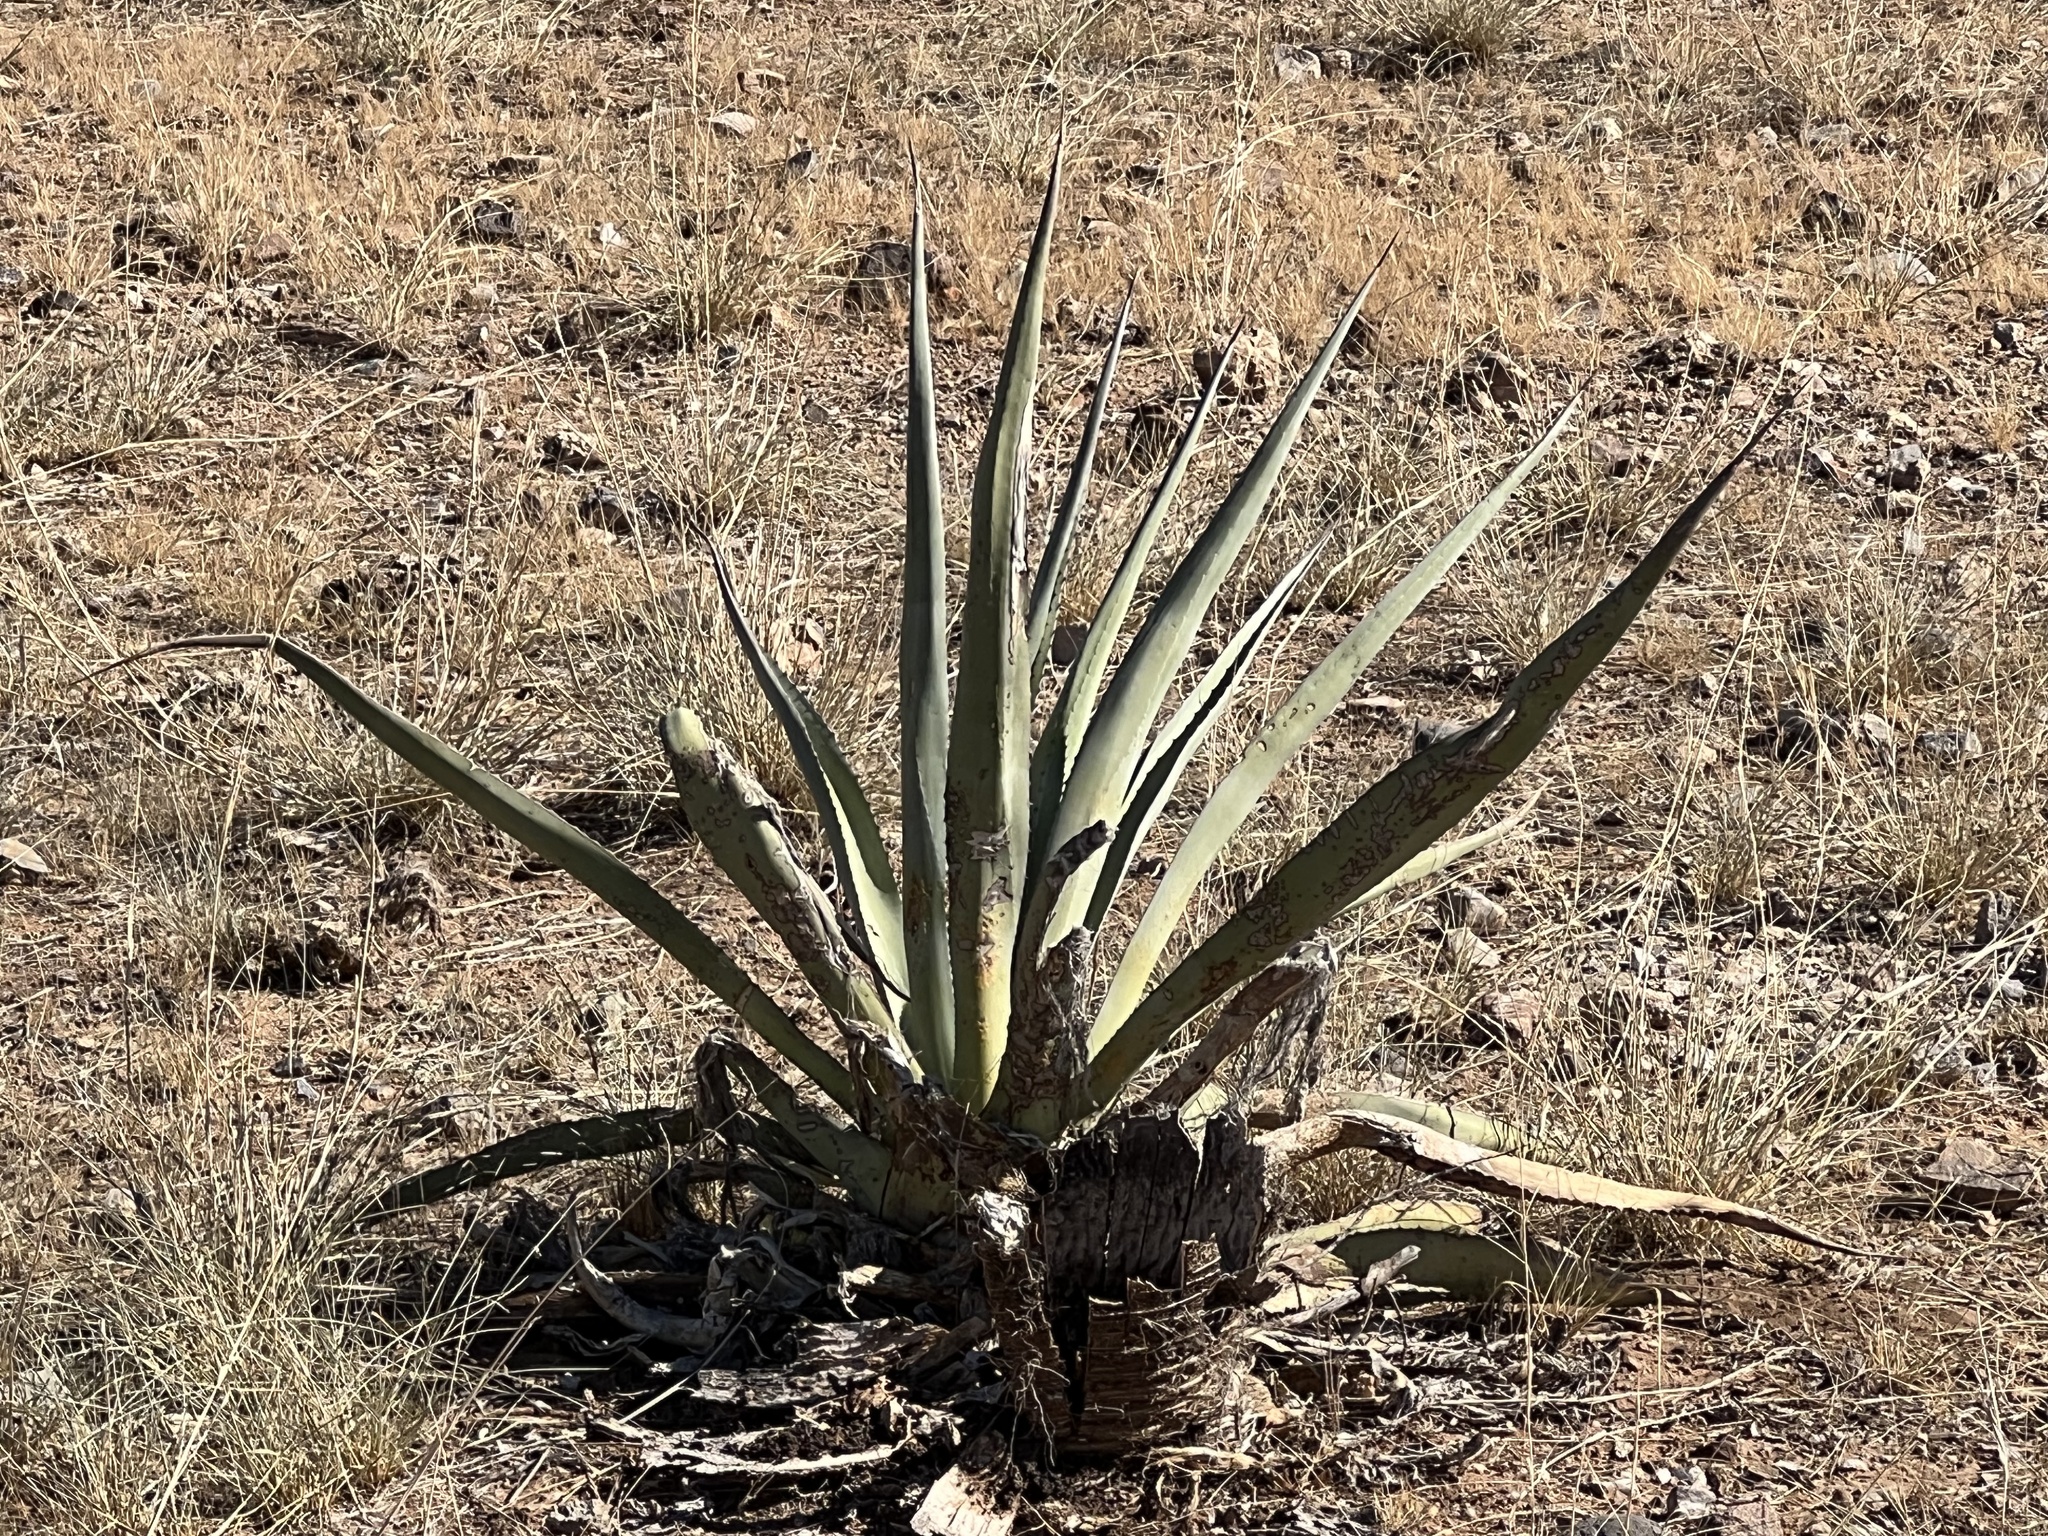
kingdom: Plantae
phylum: Tracheophyta
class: Liliopsida
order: Asparagales
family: Asparagaceae
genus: Agave
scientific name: Agave palmeri
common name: Palmer agave
